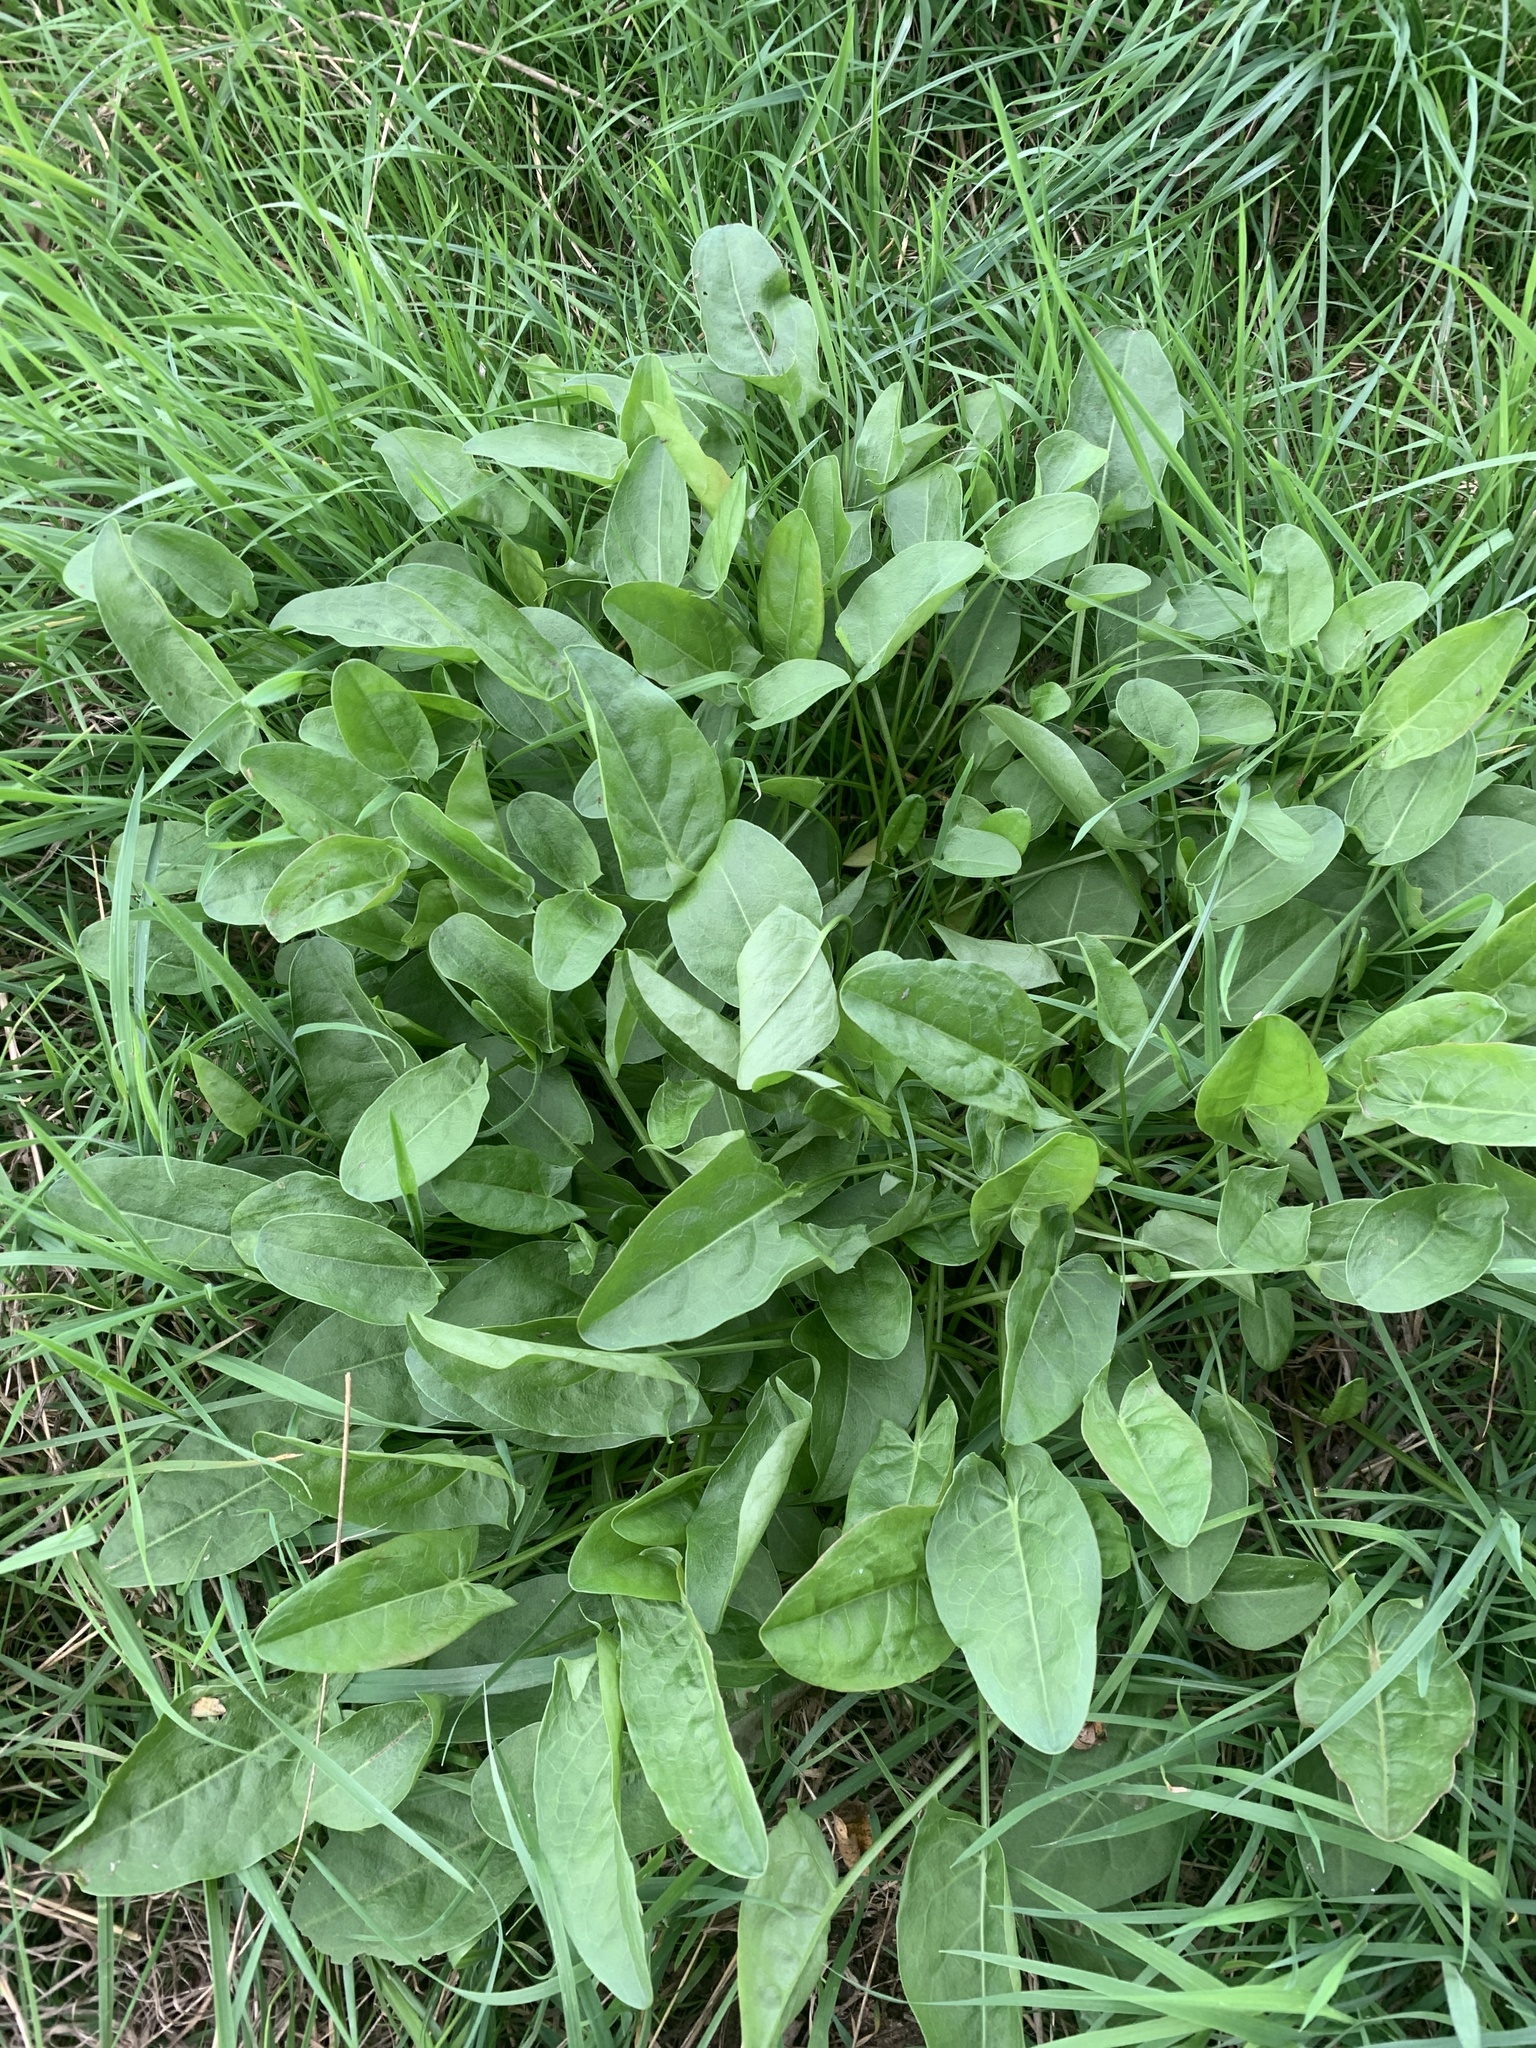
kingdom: Plantae
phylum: Tracheophyta
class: Magnoliopsida
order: Caryophyllales
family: Polygonaceae
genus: Rumex
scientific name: Rumex acetosa
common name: Garden sorrel
